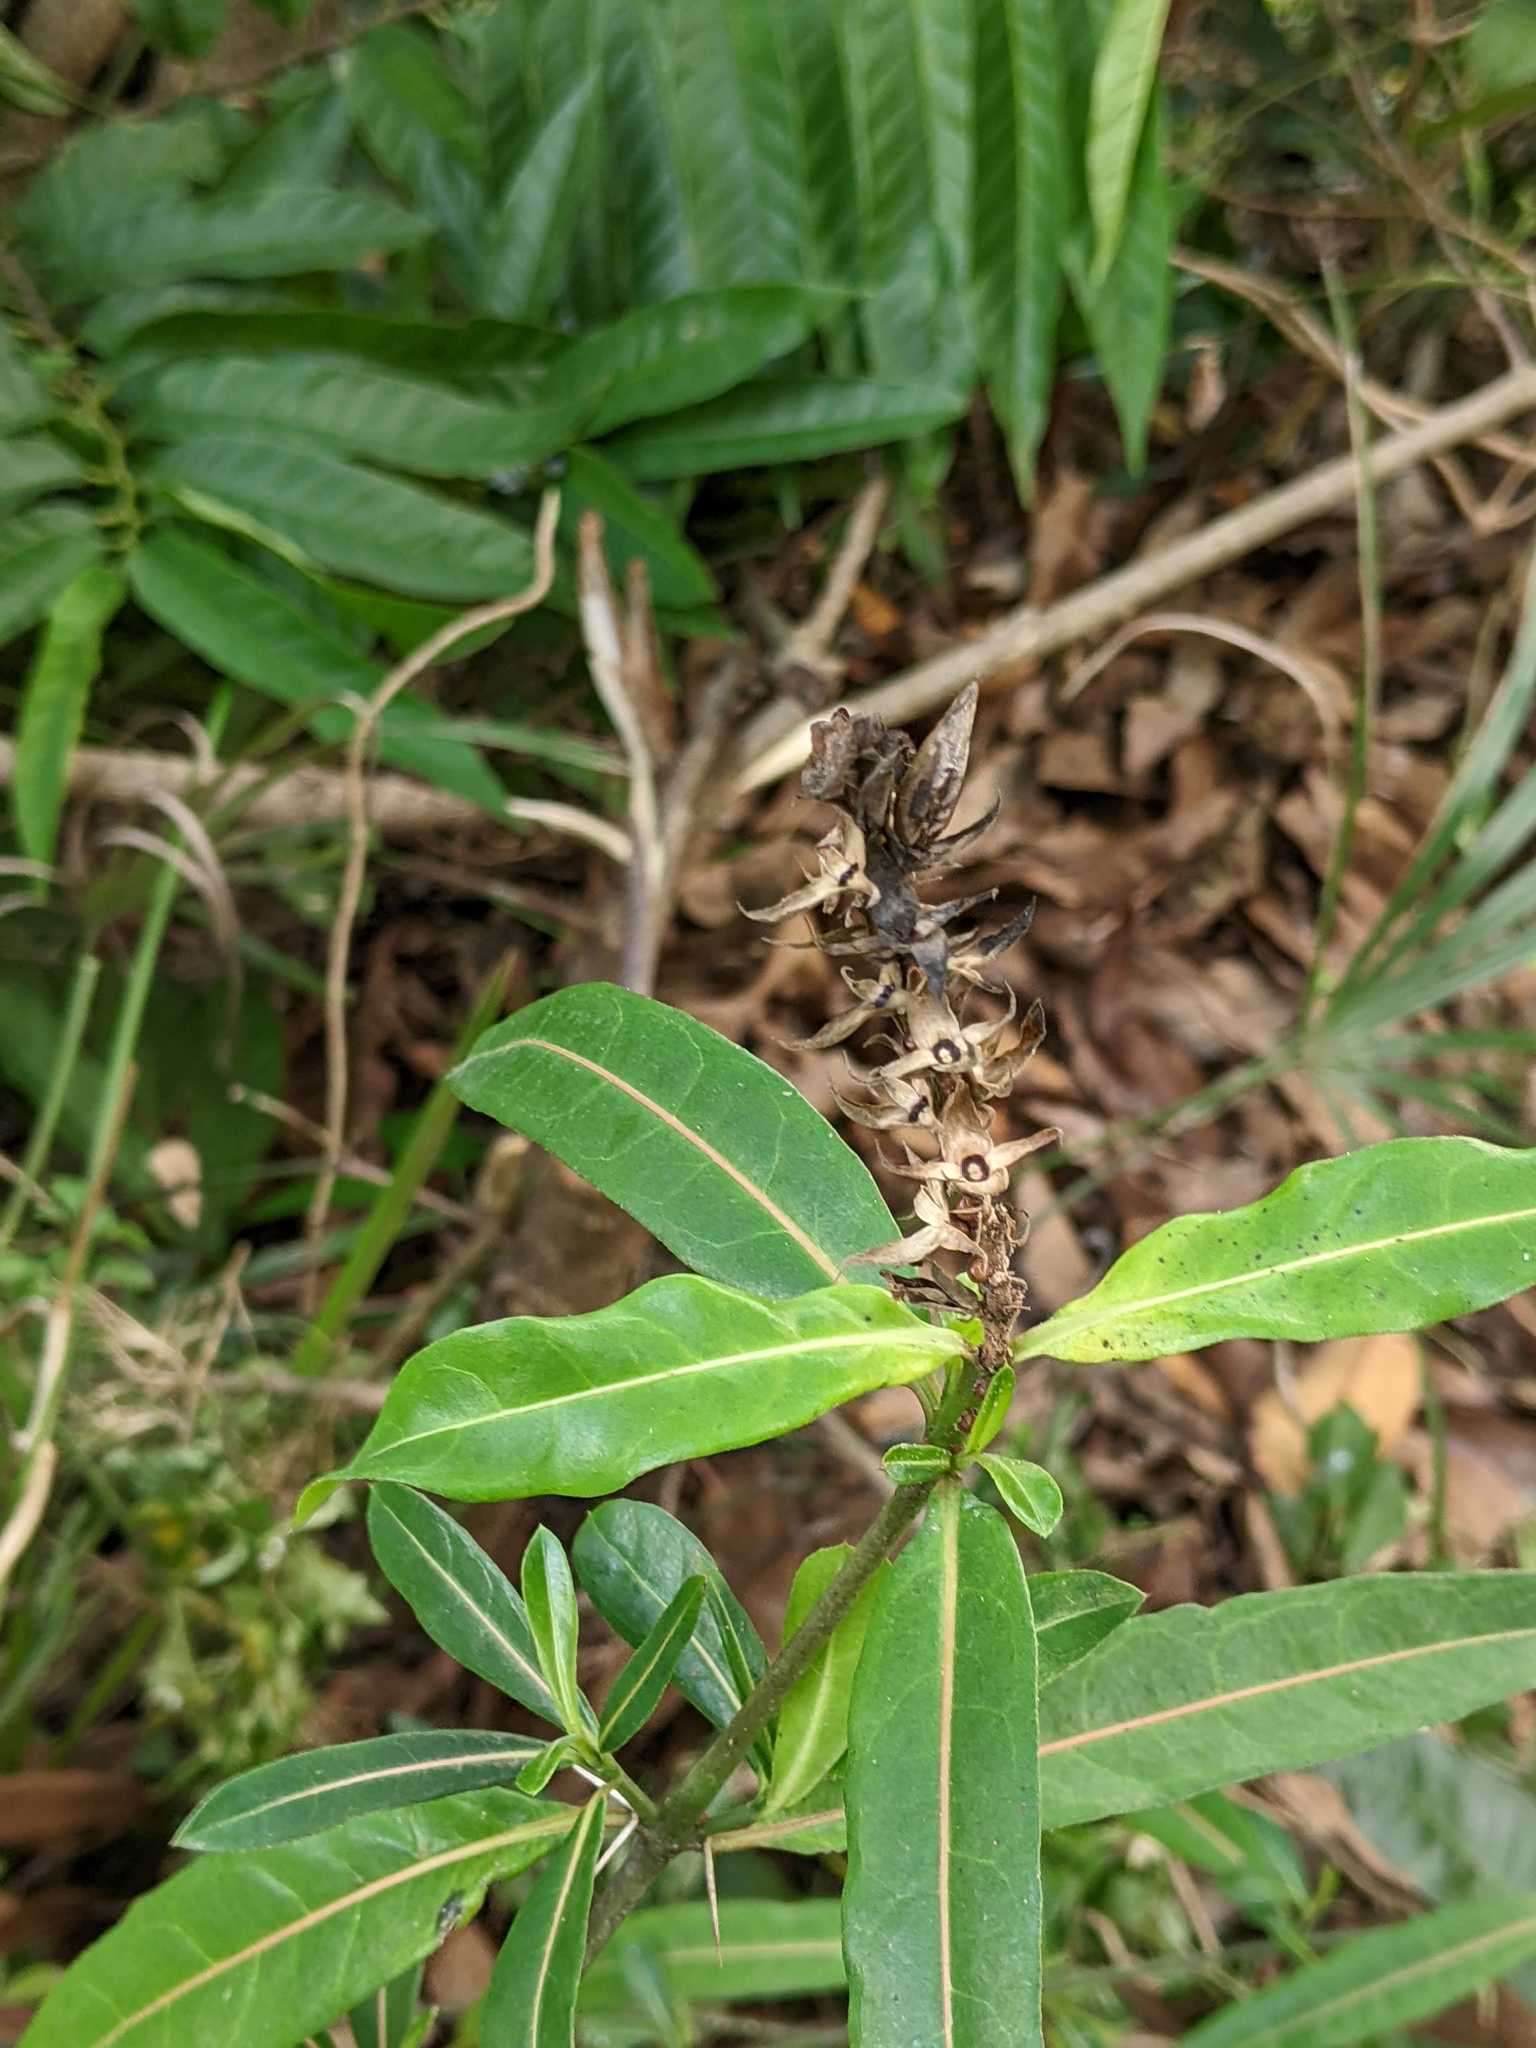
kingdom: Plantae
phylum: Tracheophyta
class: Magnoliopsida
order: Lamiales
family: Acanthaceae
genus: Barleria
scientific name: Barleria lupulina
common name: Hophead philippine violet
